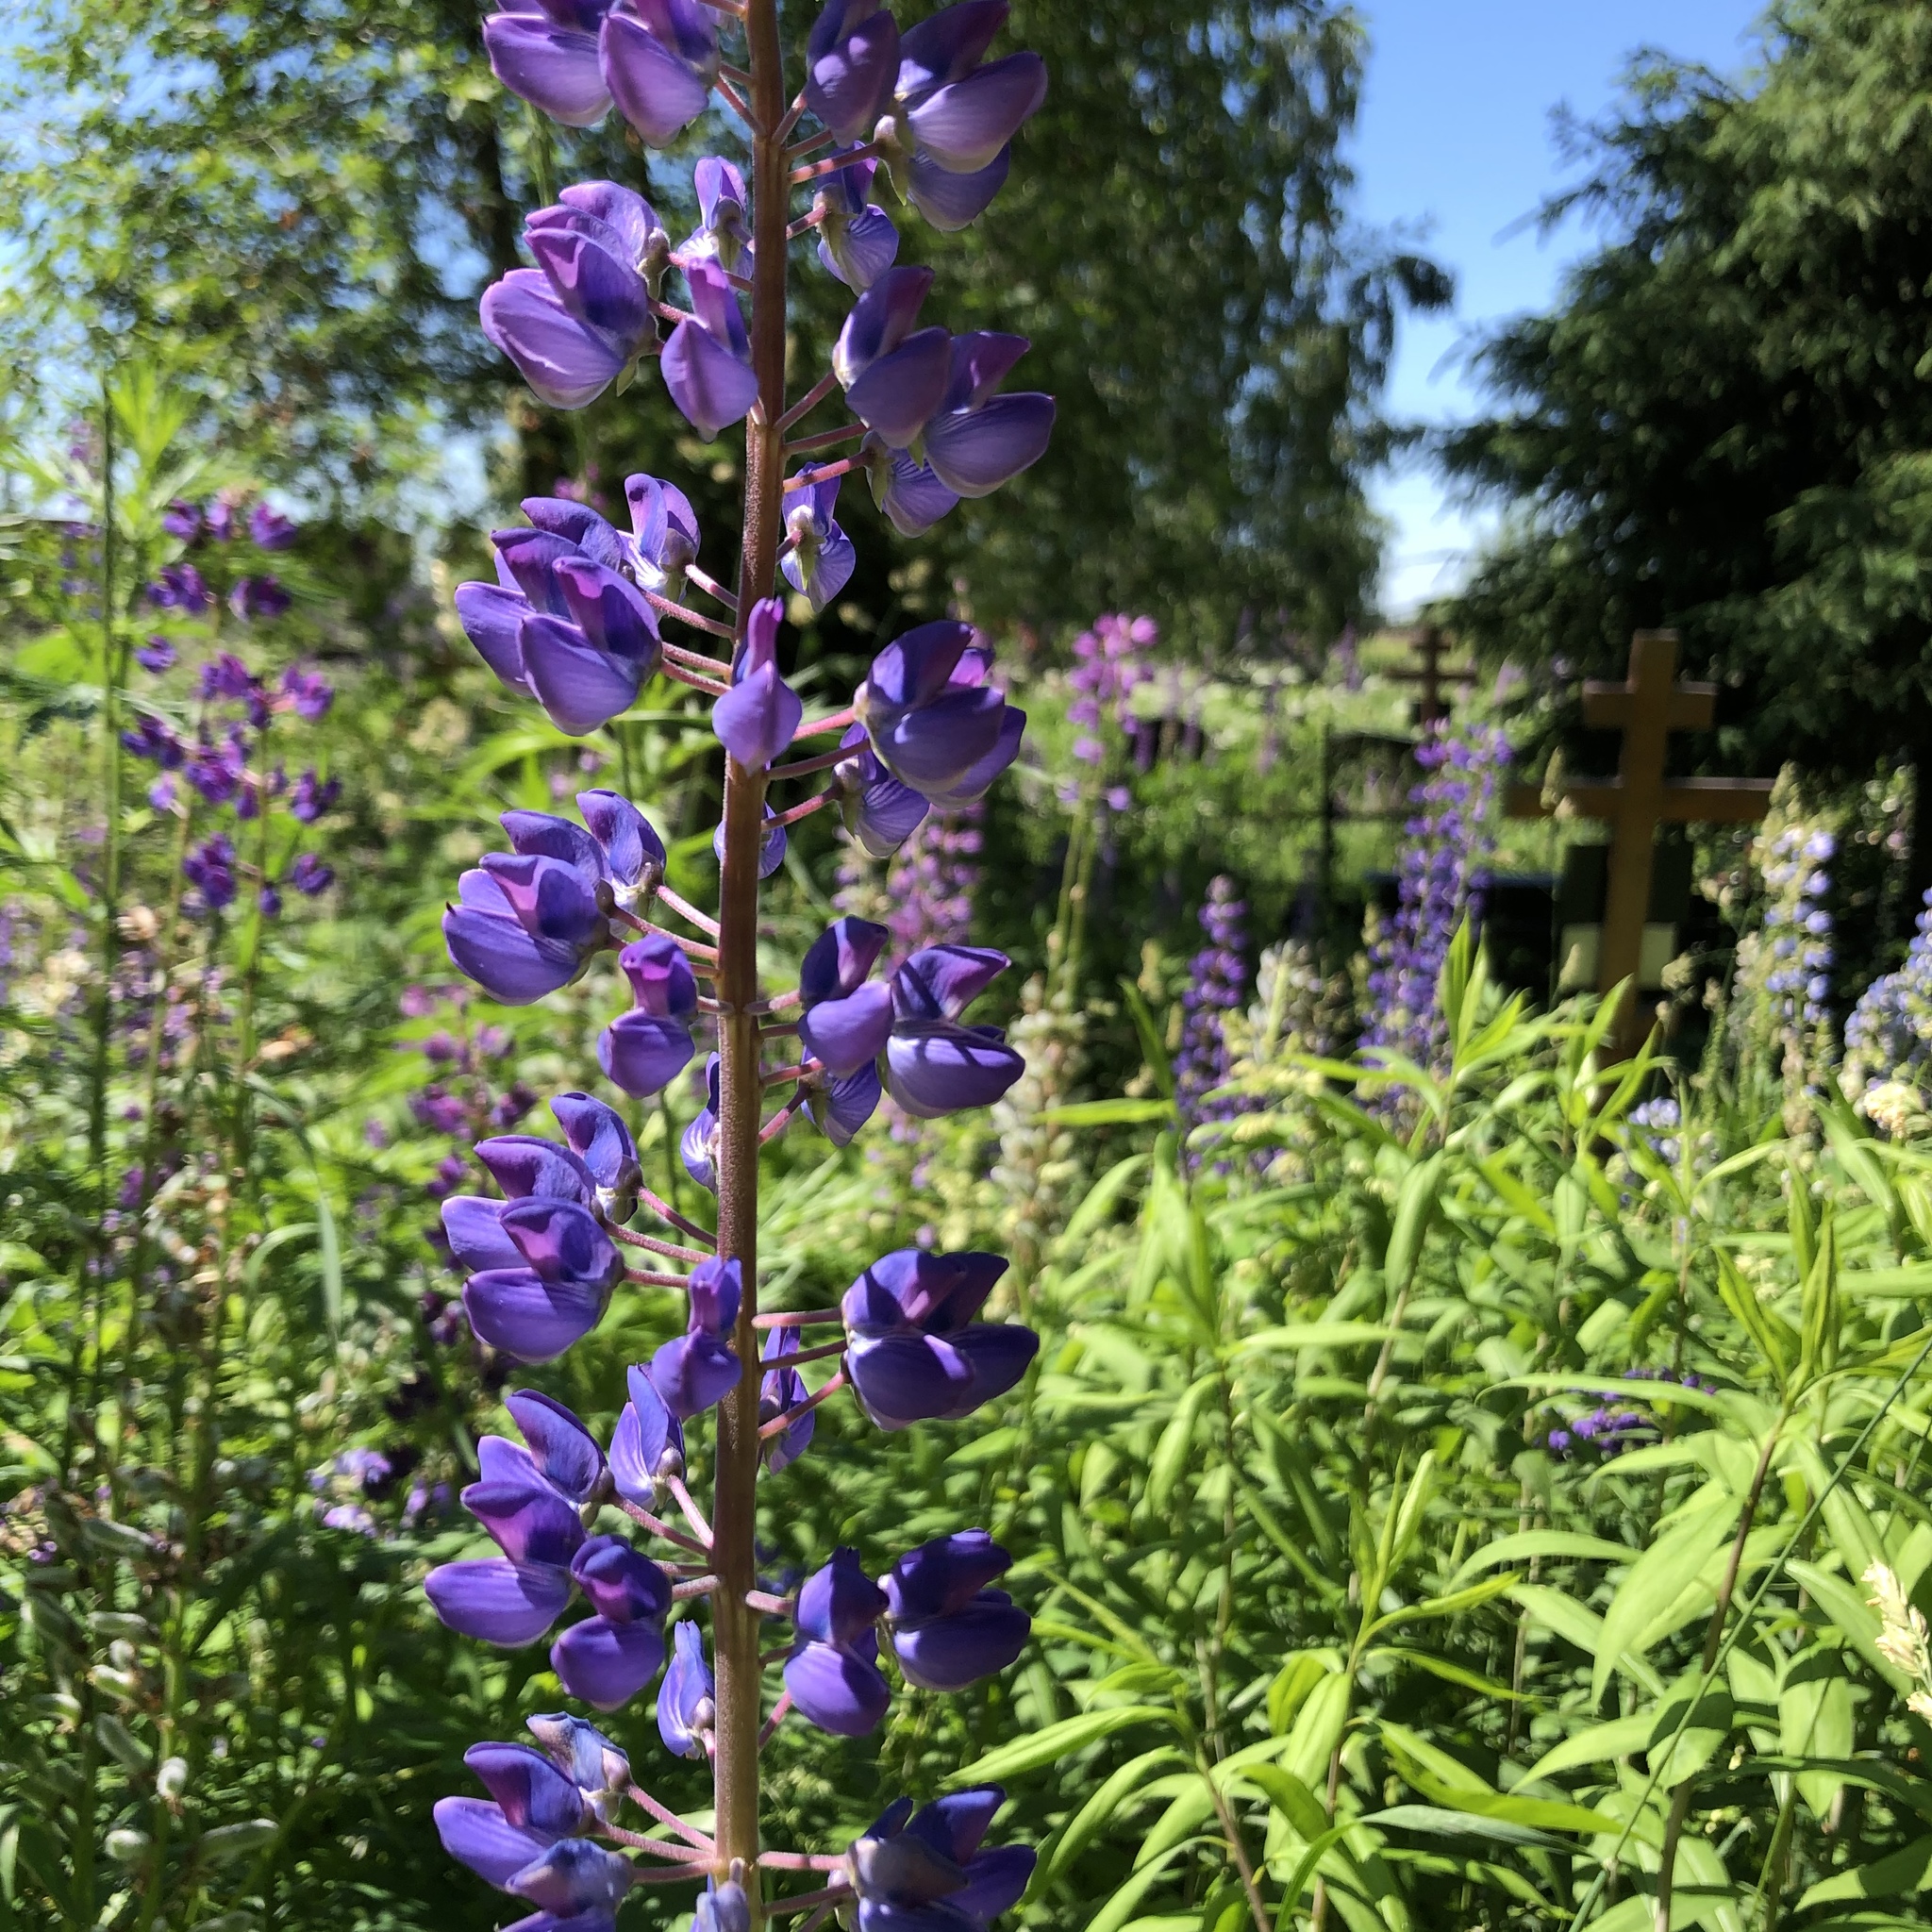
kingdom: Plantae
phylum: Tracheophyta
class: Magnoliopsida
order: Fabales
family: Fabaceae
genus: Lupinus
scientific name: Lupinus polyphyllus
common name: Garden lupin
